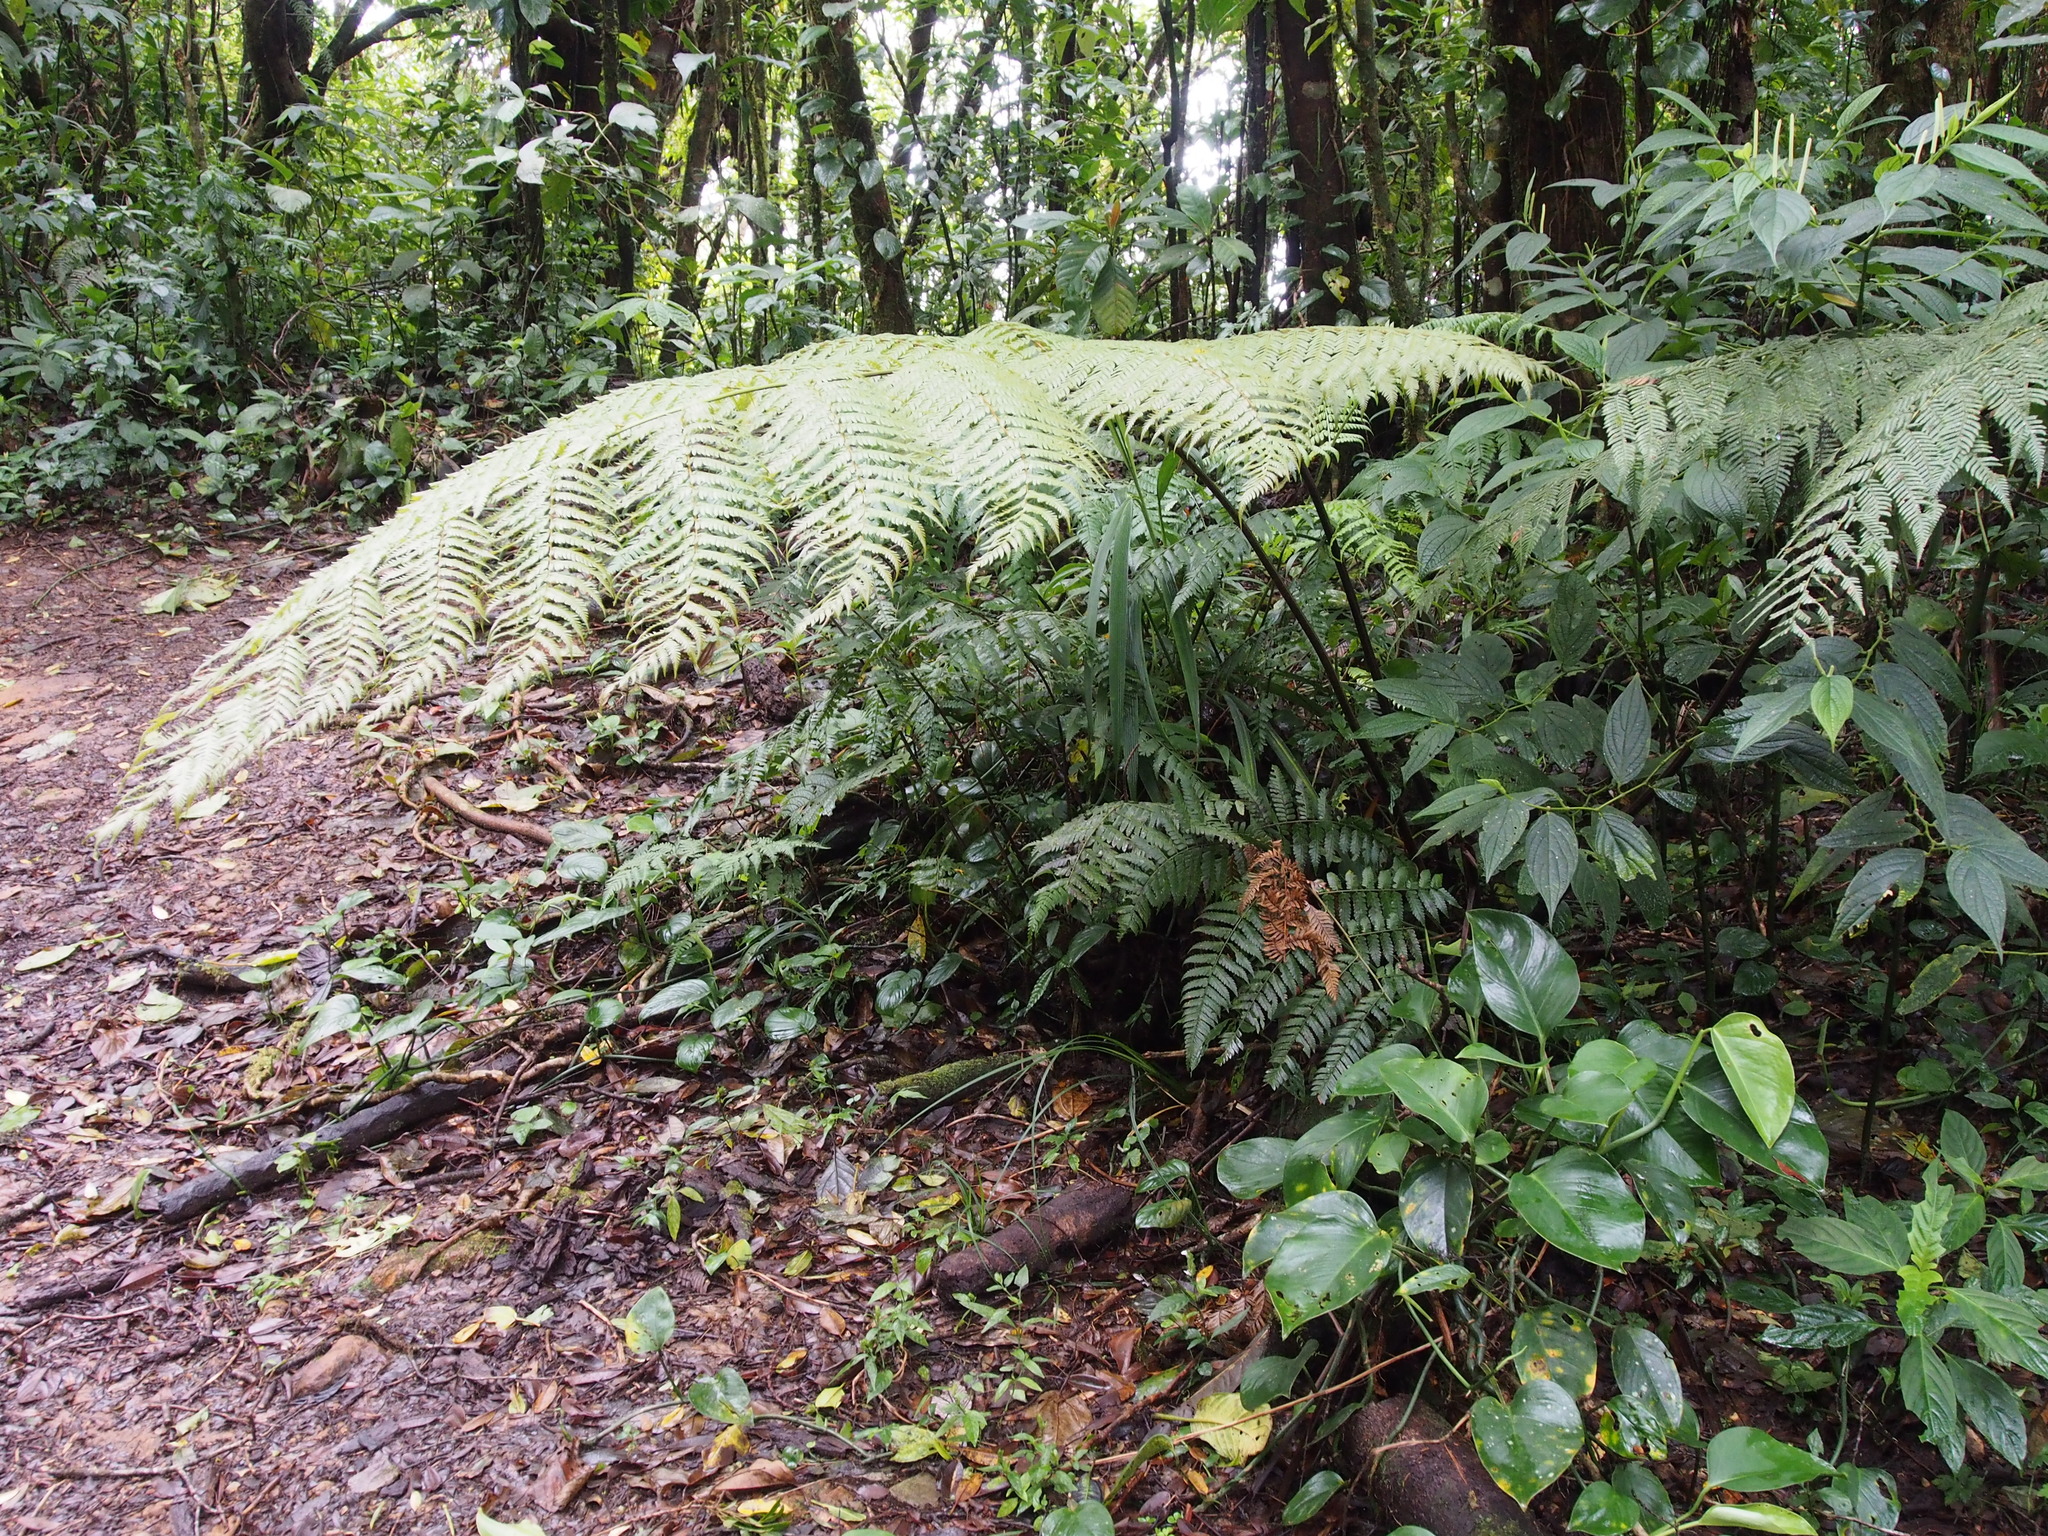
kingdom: Plantae
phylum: Tracheophyta
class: Polypodiopsida
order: Cyatheales
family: Dicksoniaceae
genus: Lophosoria
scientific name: Lophosoria quadripinnata
